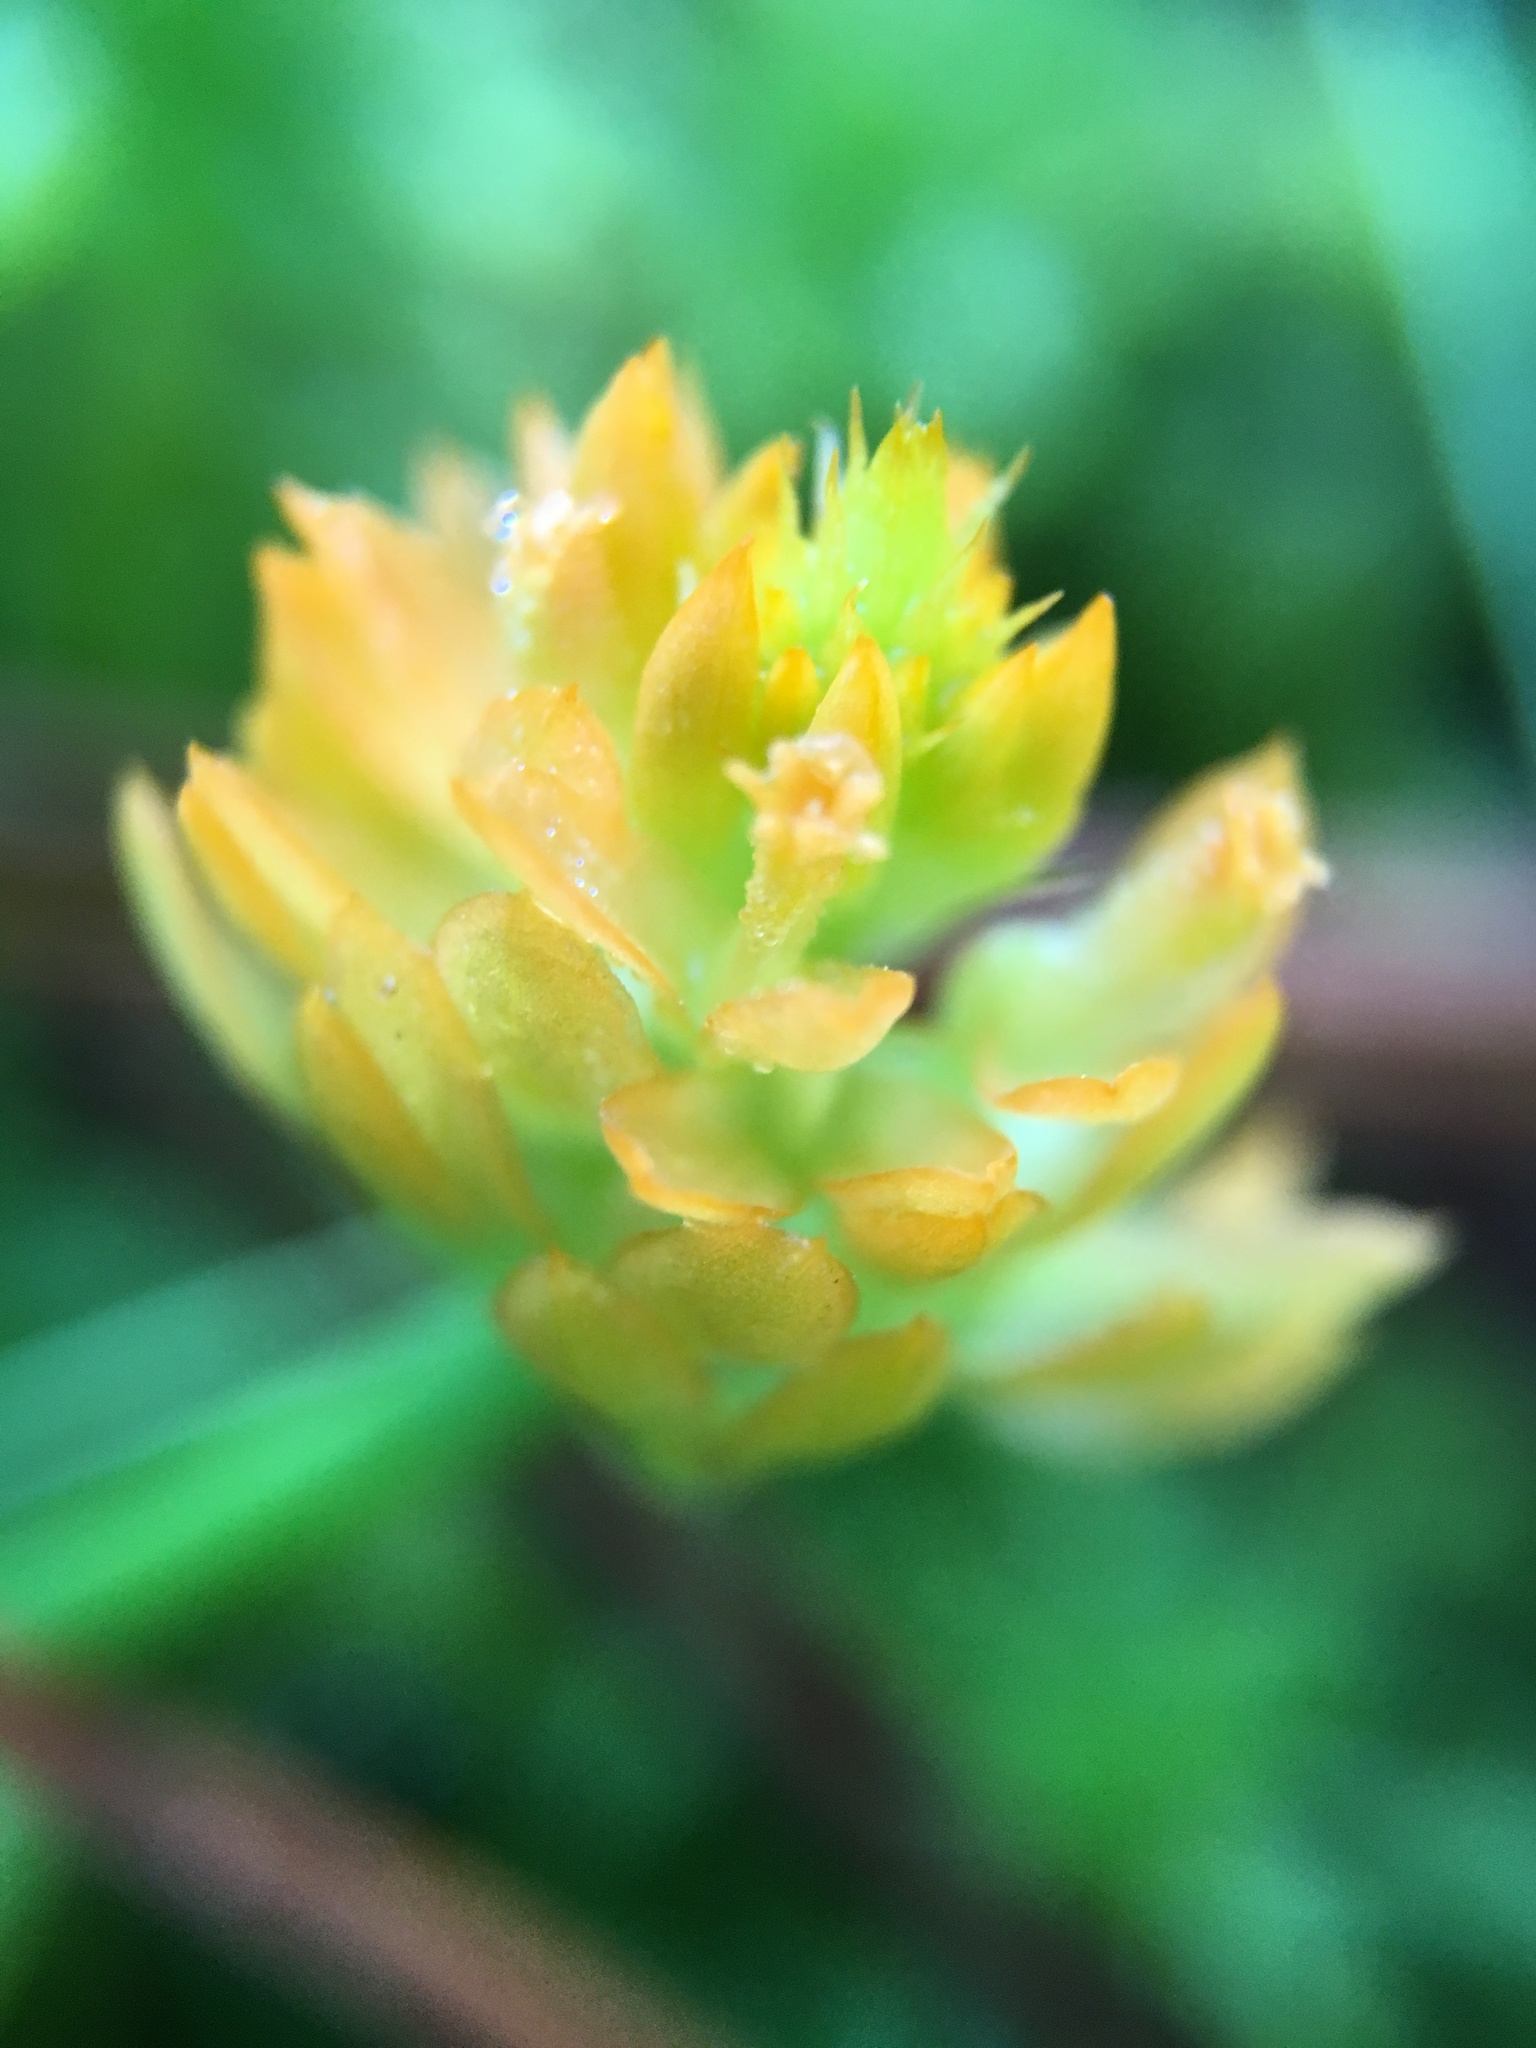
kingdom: Plantae
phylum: Tracheophyta
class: Magnoliopsida
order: Fabales
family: Polygalaceae
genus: Polygala
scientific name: Polygala lutea
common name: Orange milkwort
